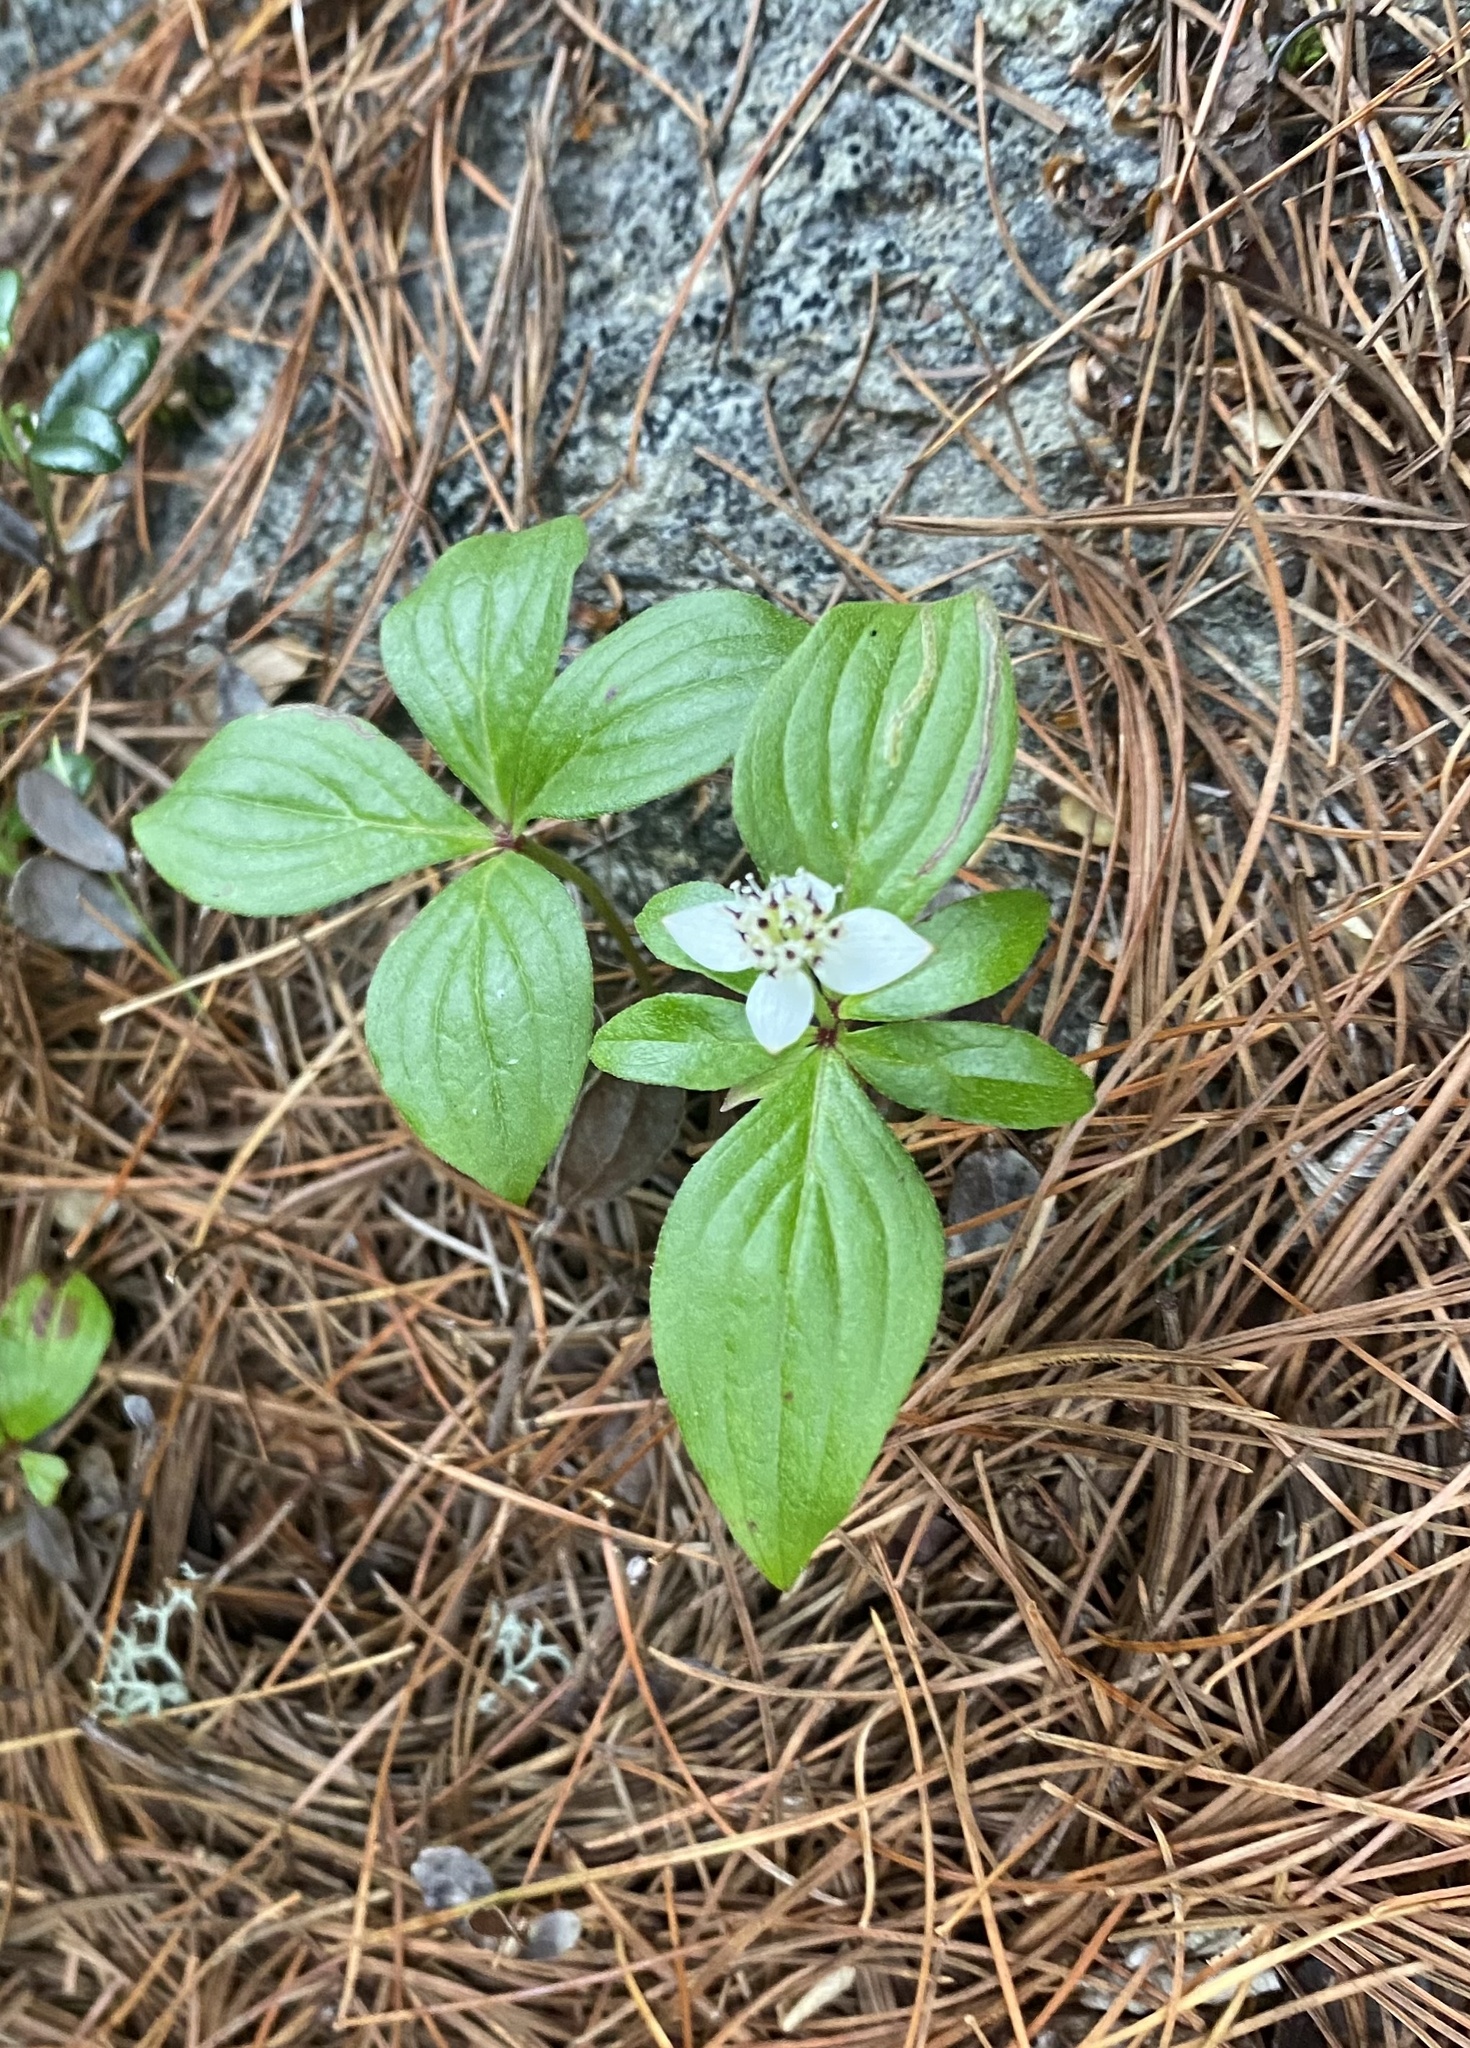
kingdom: Plantae
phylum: Tracheophyta
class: Magnoliopsida
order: Cornales
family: Cornaceae
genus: Cornus
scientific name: Cornus canadensis
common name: Creeping dogwood
